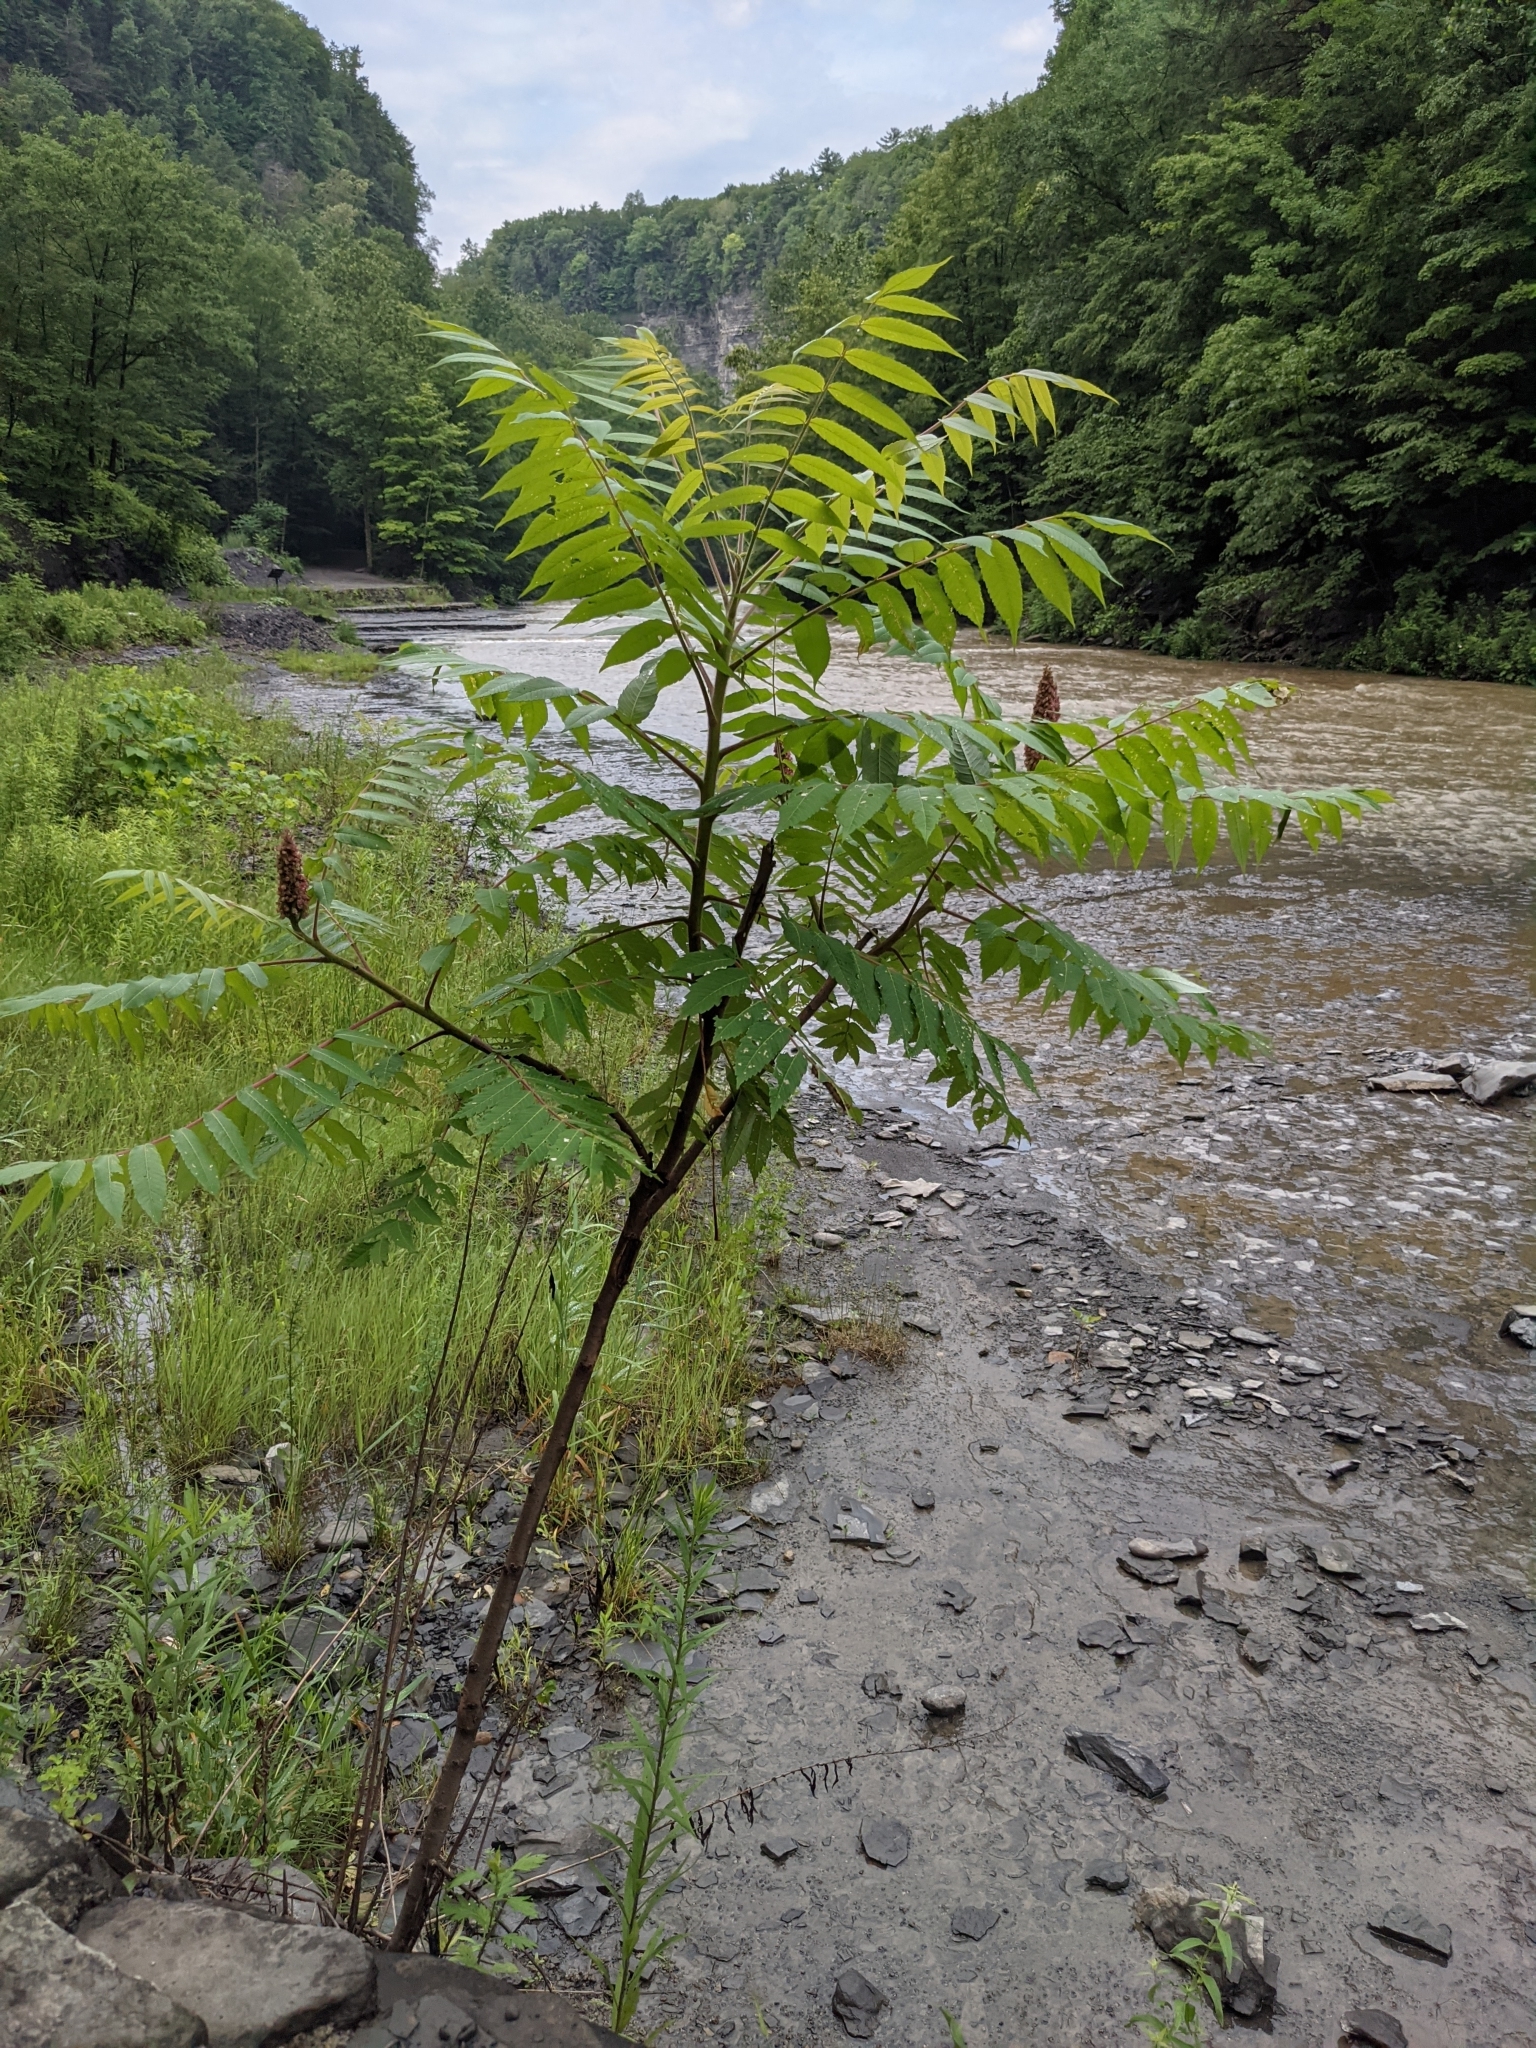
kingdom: Plantae
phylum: Tracheophyta
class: Magnoliopsida
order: Sapindales
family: Anacardiaceae
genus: Rhus
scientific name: Rhus typhina
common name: Staghorn sumac
